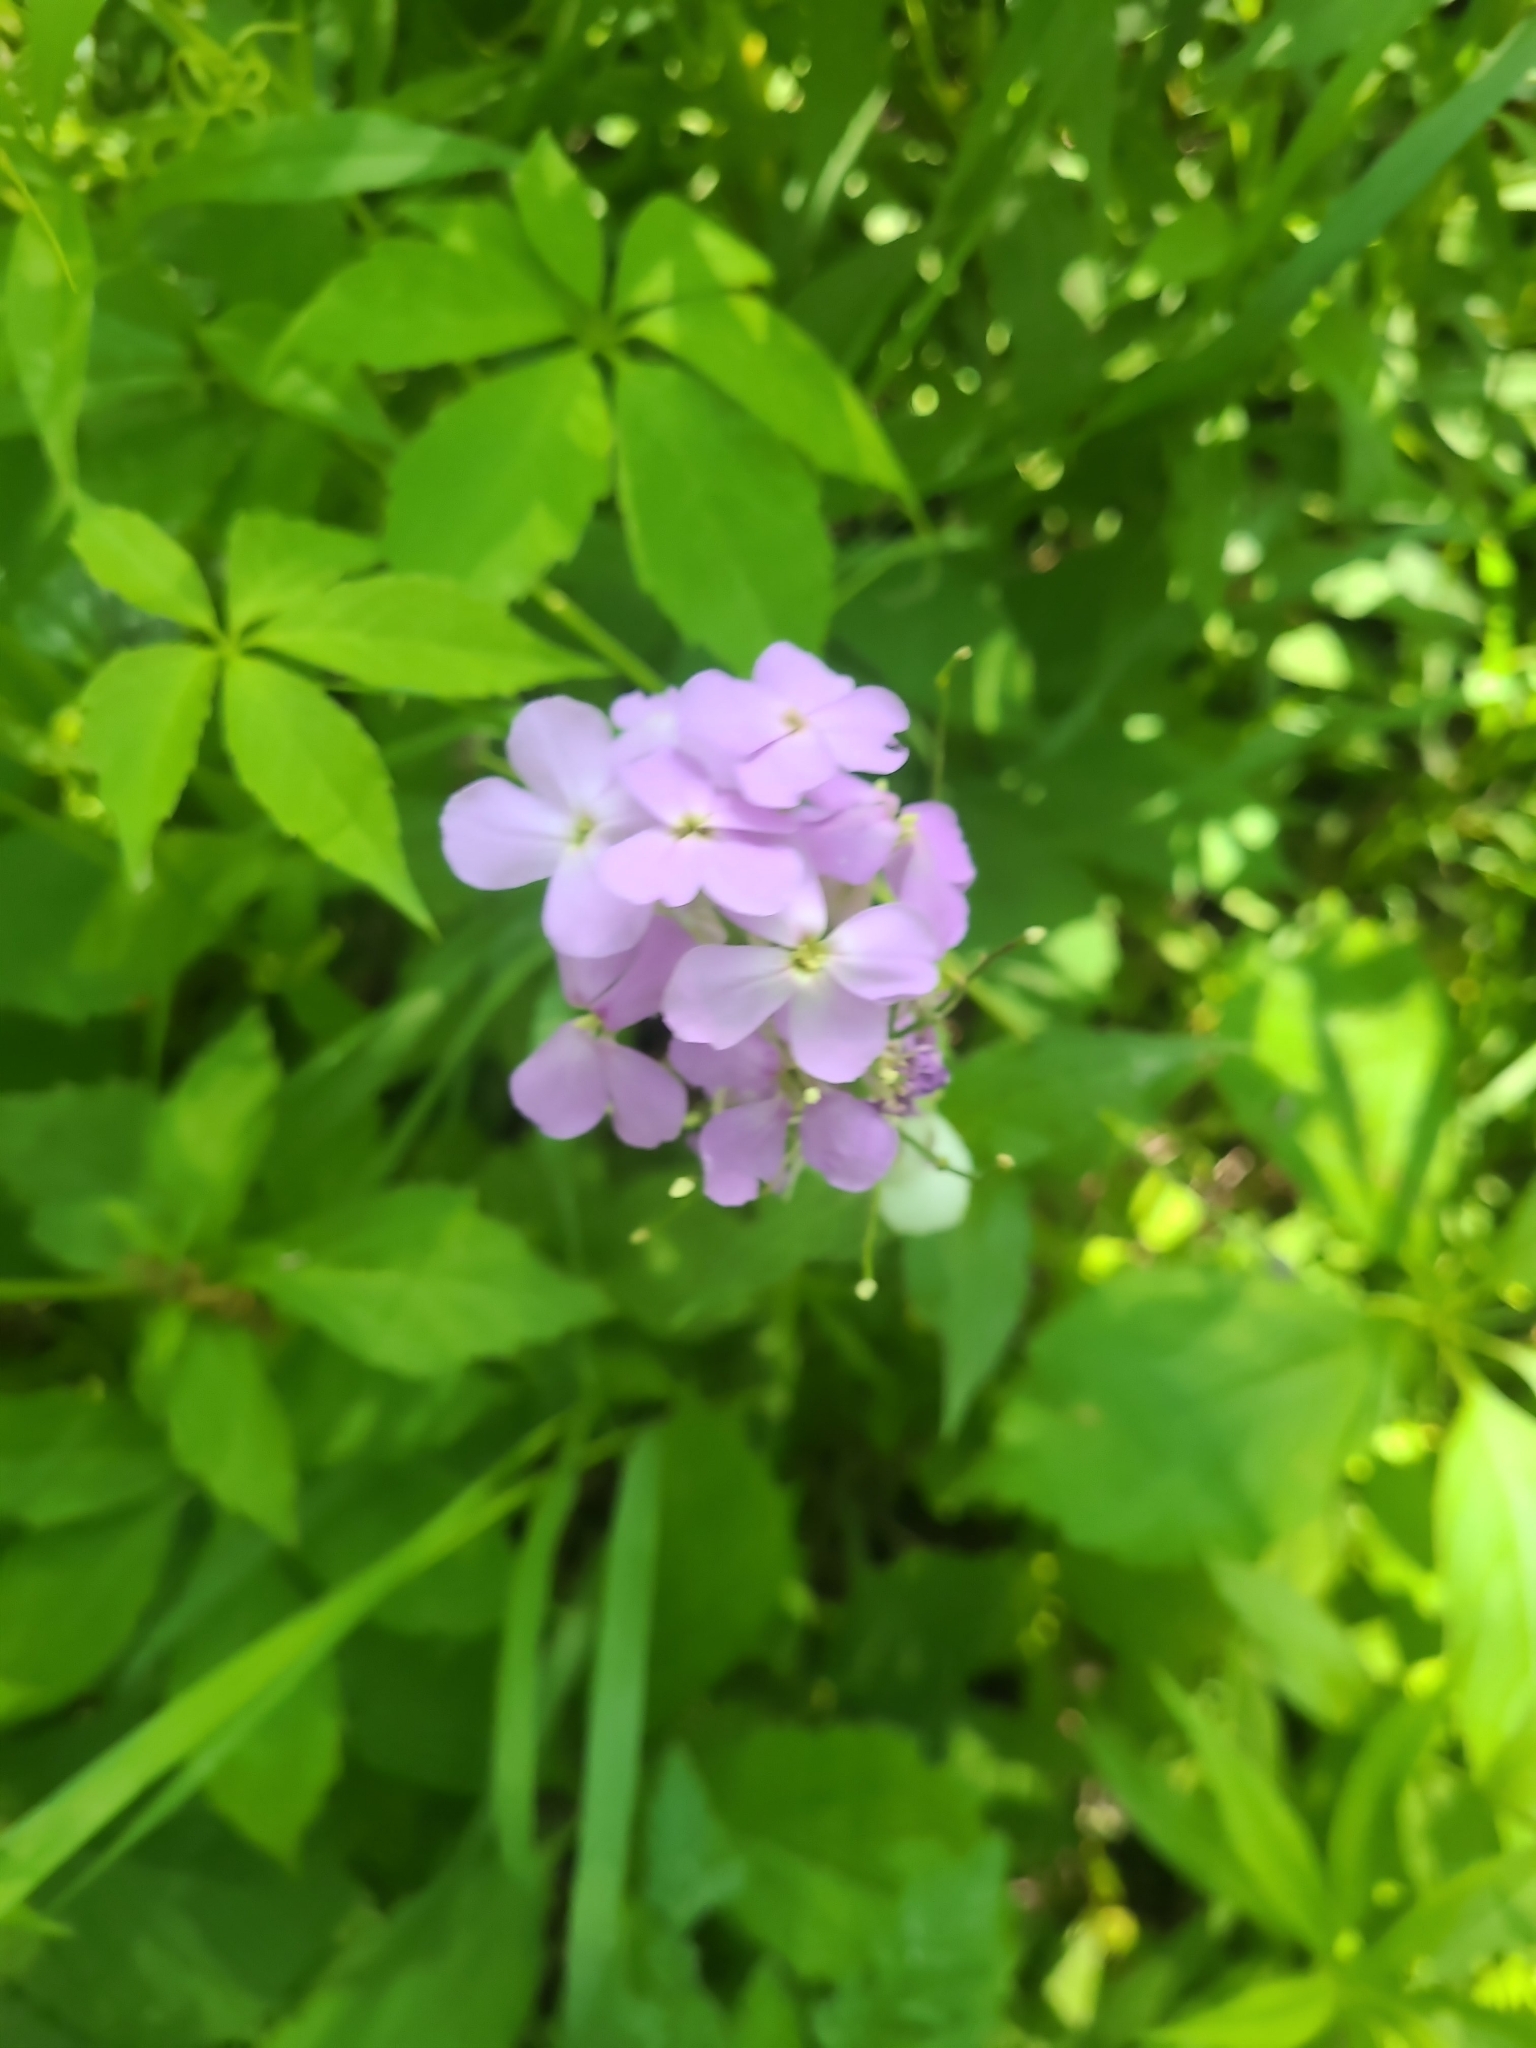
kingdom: Plantae
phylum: Tracheophyta
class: Magnoliopsida
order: Brassicales
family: Brassicaceae
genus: Hesperis
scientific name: Hesperis matronalis
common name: Dame's-violet
